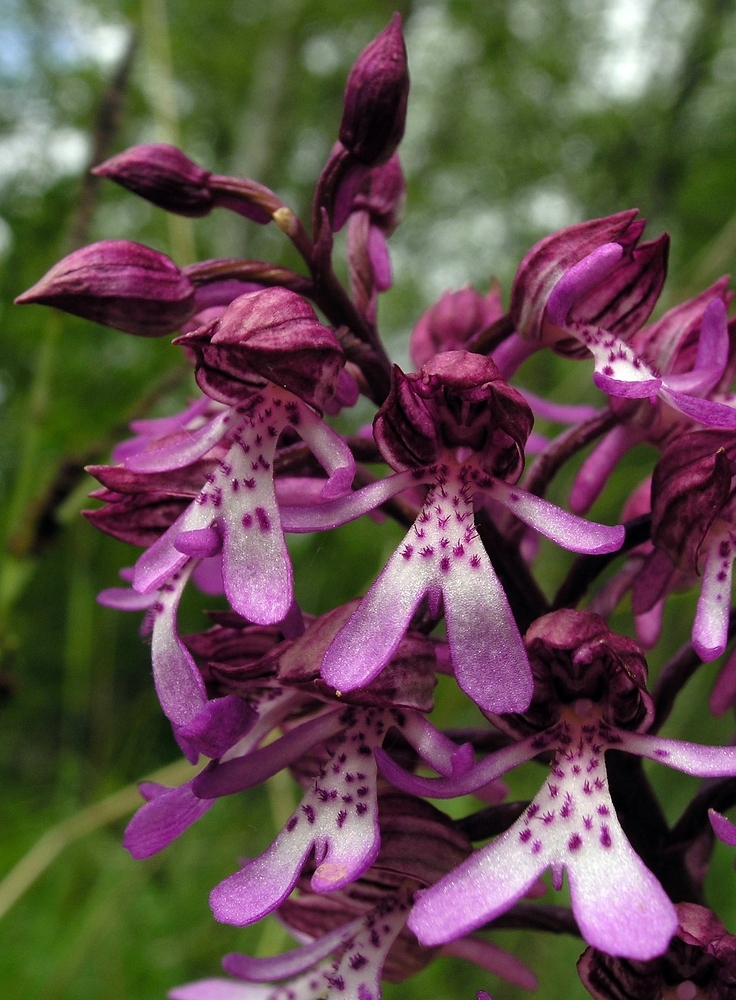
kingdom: Plantae
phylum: Tracheophyta
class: Liliopsida
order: Asparagales
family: Orchidaceae
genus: Orchis
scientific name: Orchis hybrida
